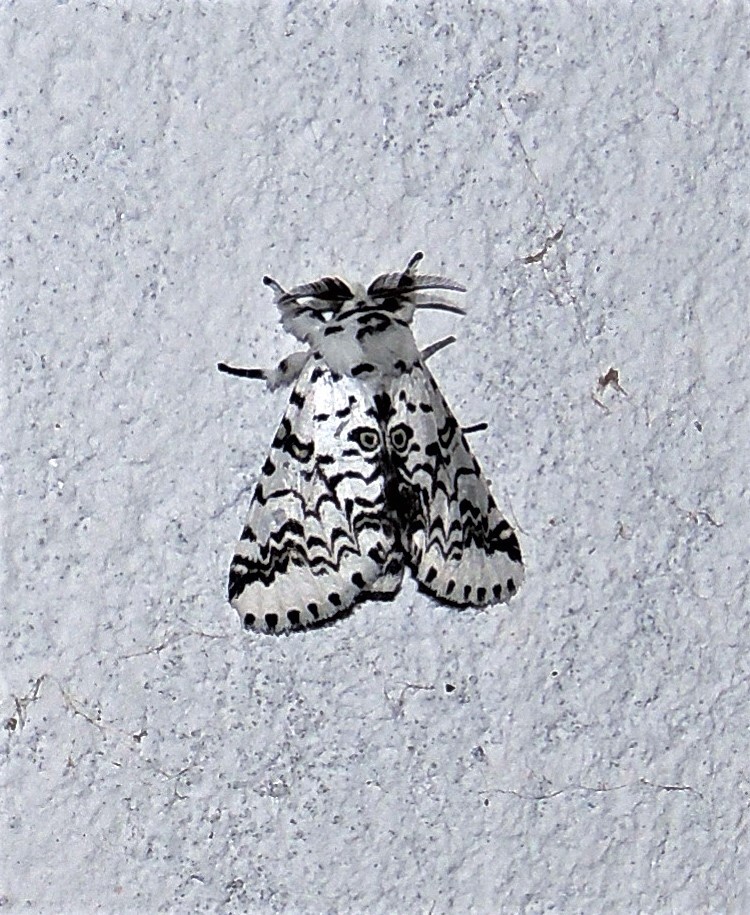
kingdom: Animalia
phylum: Arthropoda
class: Insecta
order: Lepidoptera
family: Notodontidae
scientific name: Notodontidae
